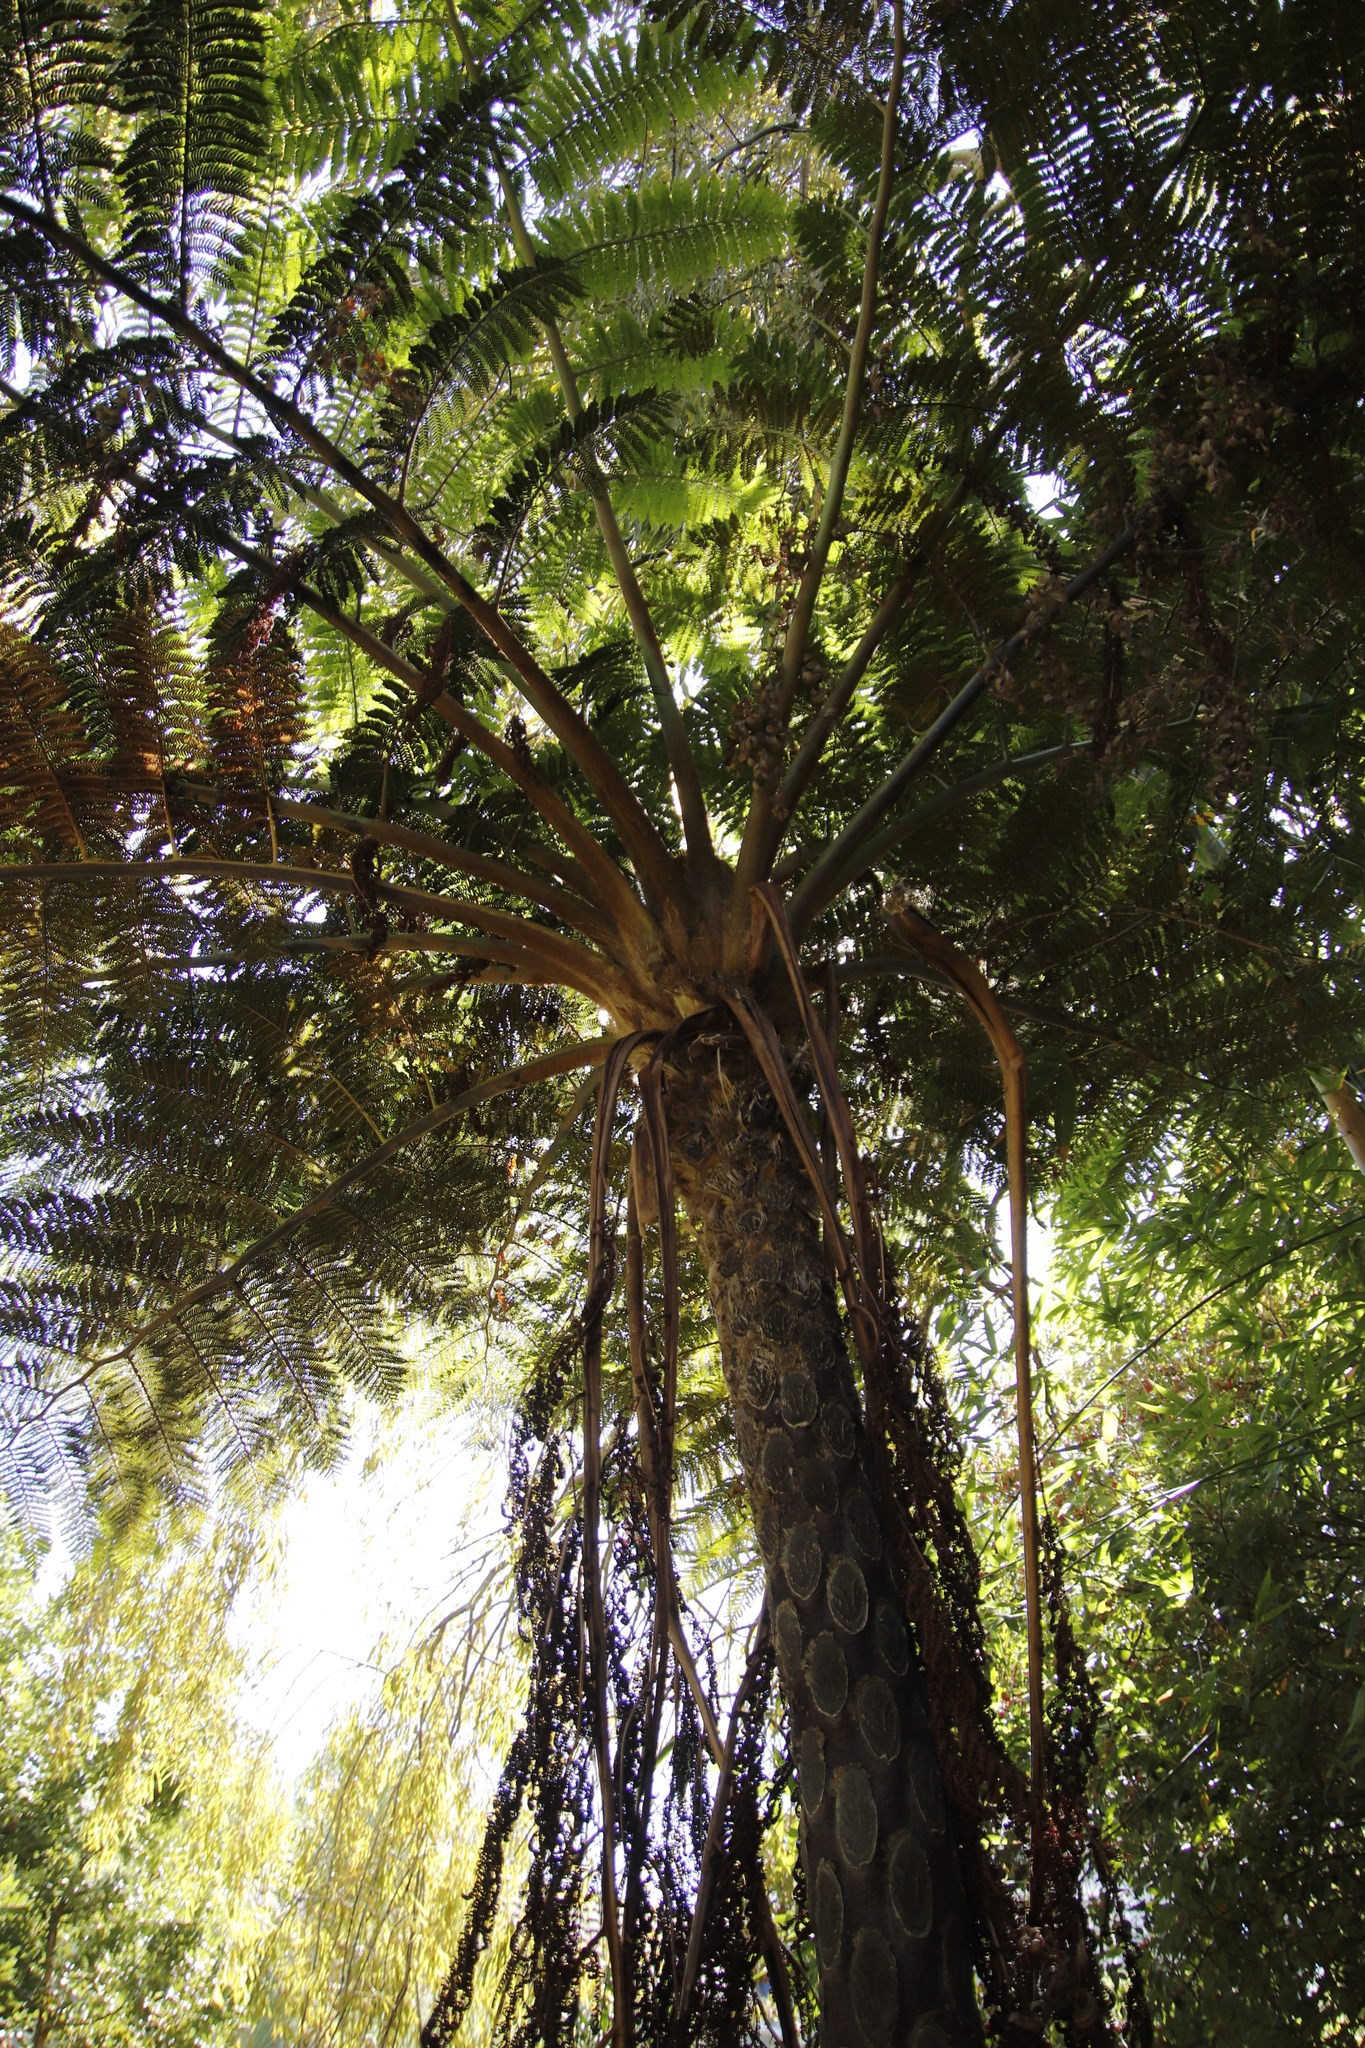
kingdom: Plantae
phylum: Tracheophyta
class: Polypodiopsida
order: Cyatheales
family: Cyatheaceae
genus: Sphaeropteris
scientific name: Sphaeropteris cooperi
